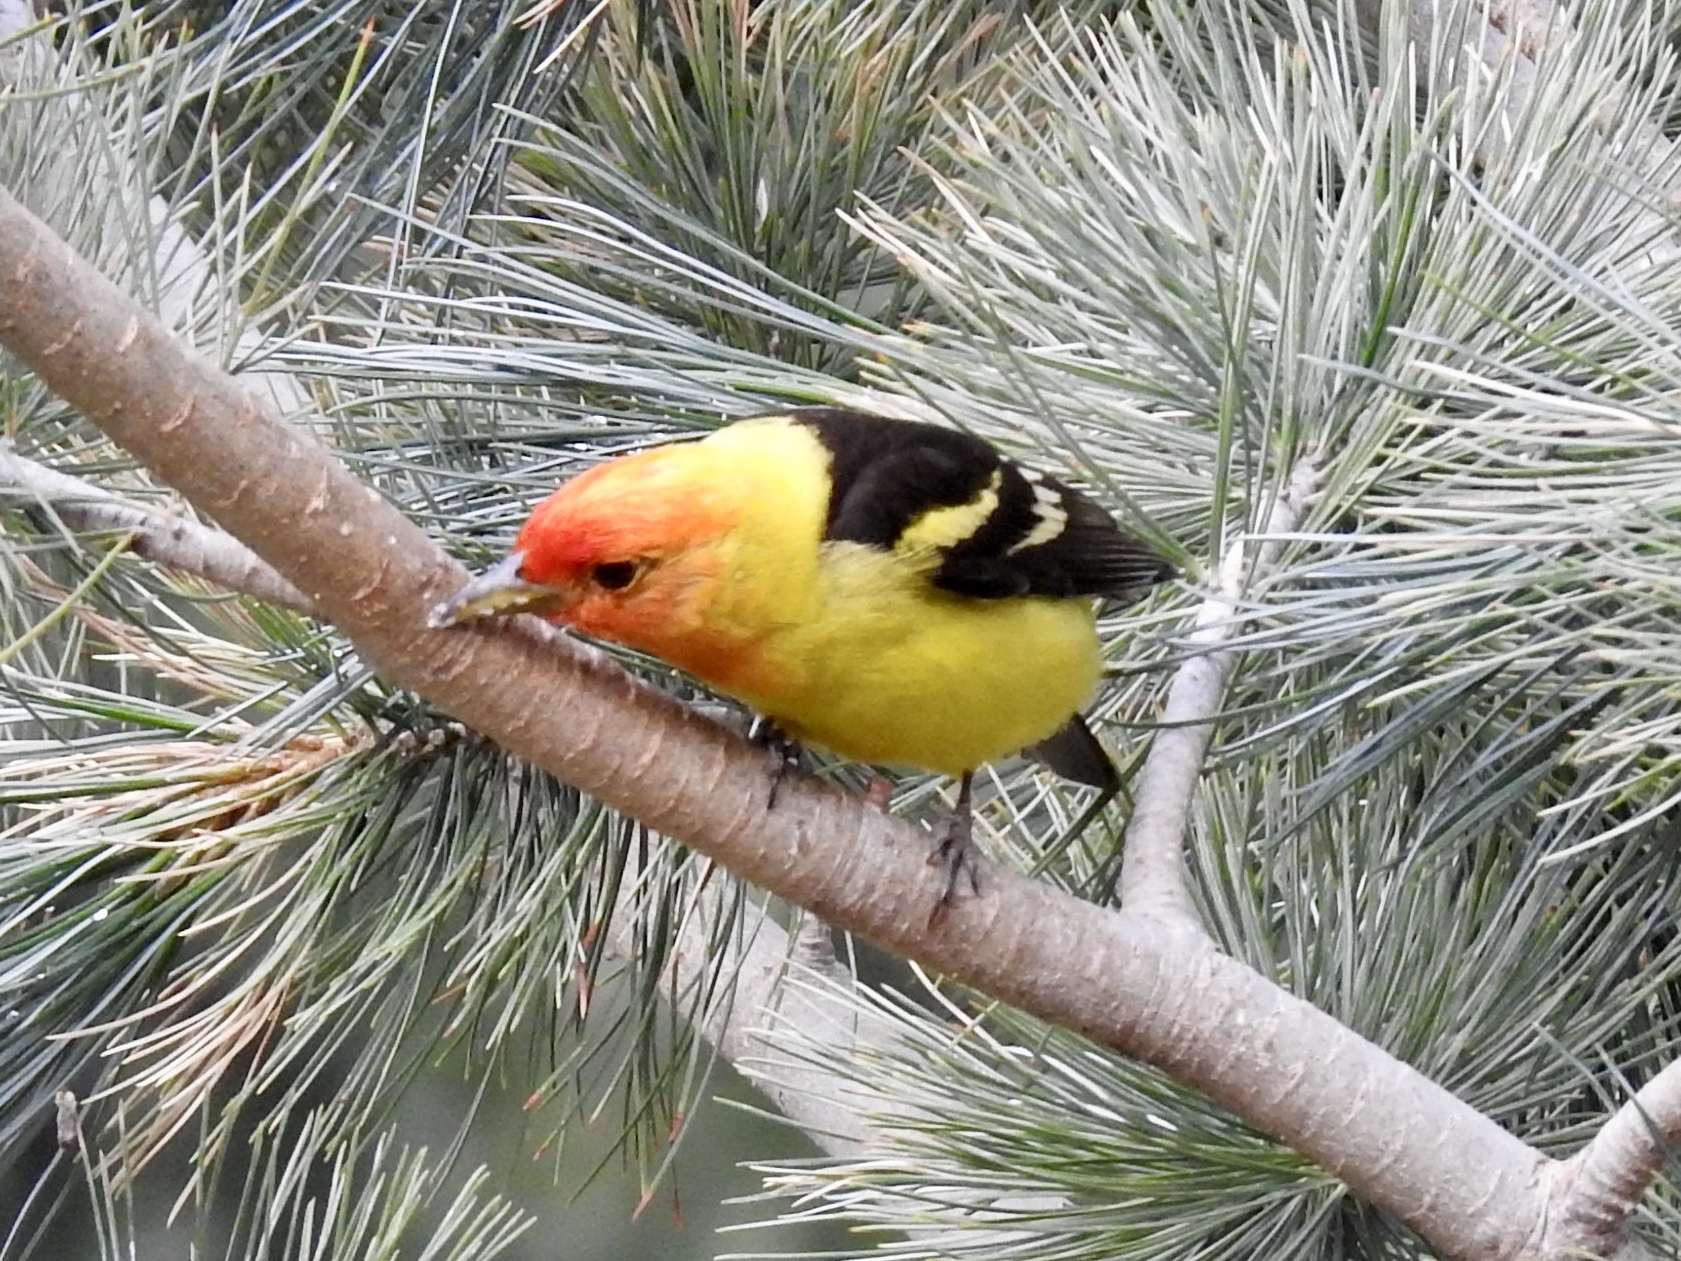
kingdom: Animalia
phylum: Chordata
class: Aves
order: Passeriformes
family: Cardinalidae
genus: Piranga
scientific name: Piranga ludoviciana
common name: Western tanager
